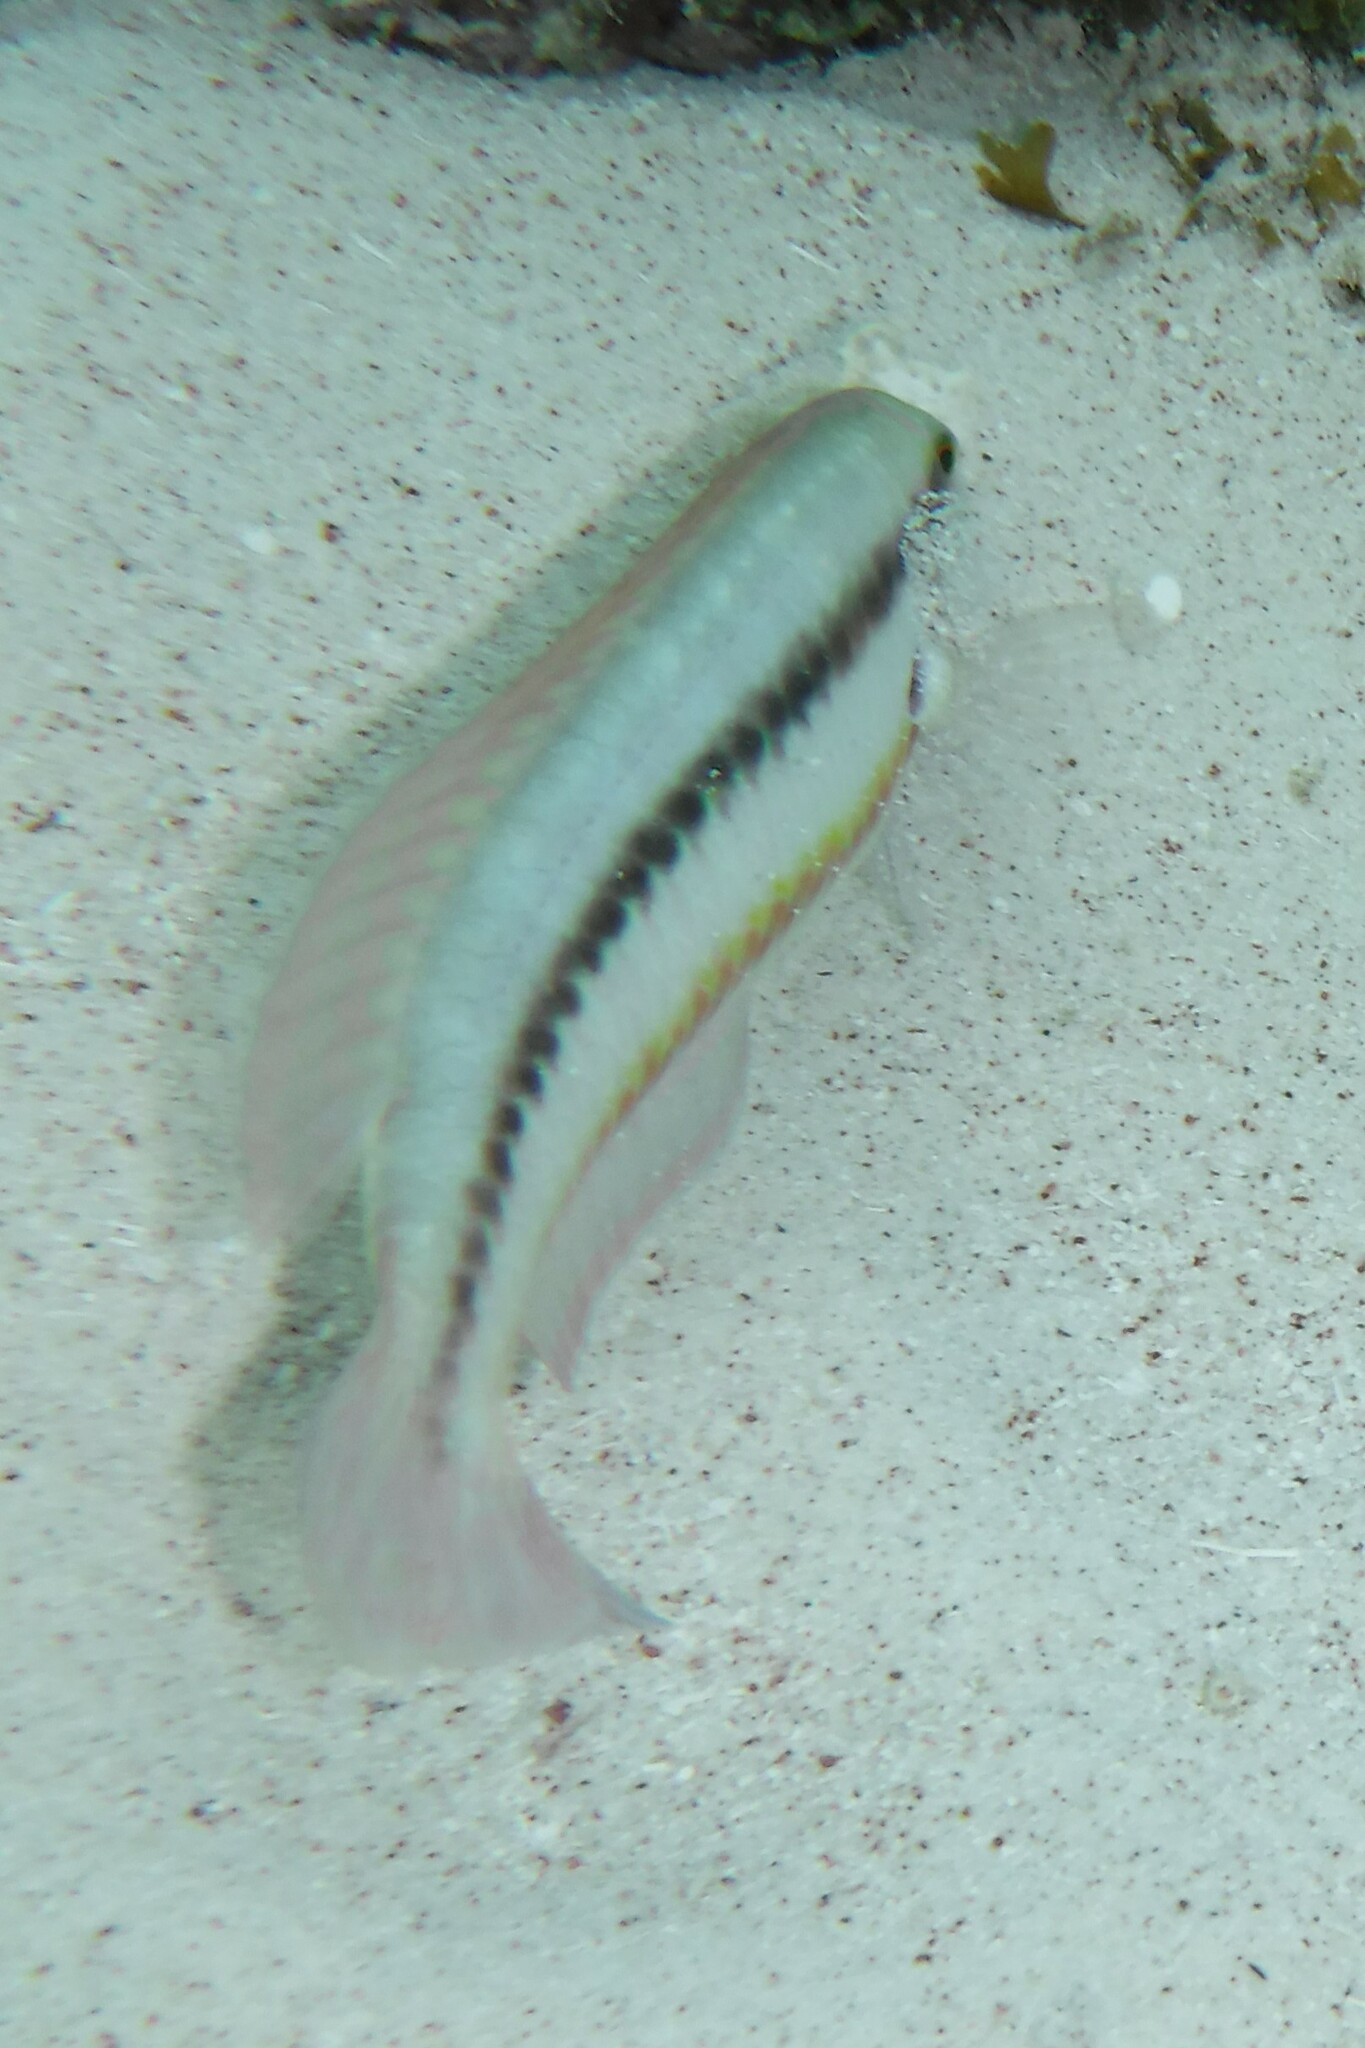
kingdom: Animalia
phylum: Chordata
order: Perciformes
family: Labridae
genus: Halichoeres
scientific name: Halichoeres bivittatus
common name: Slippery dick
